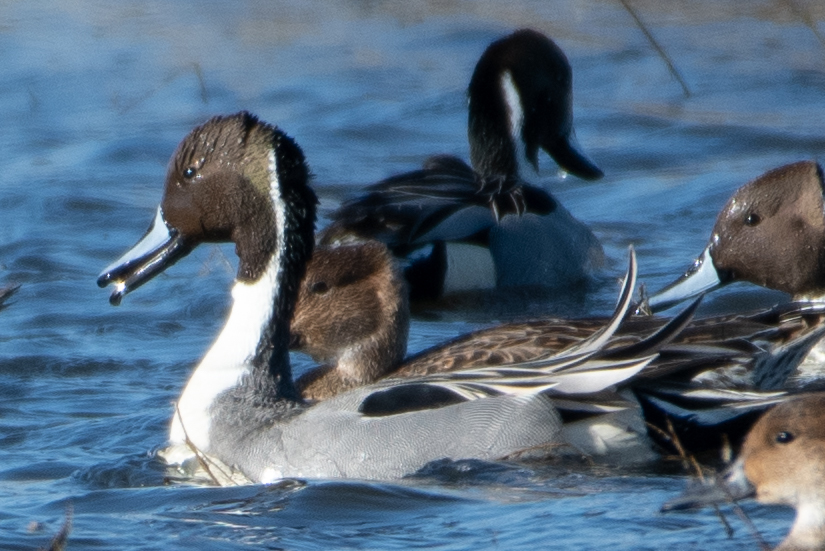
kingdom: Animalia
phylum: Chordata
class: Aves
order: Anseriformes
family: Anatidae
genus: Anas
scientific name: Anas acuta
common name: Northern pintail
